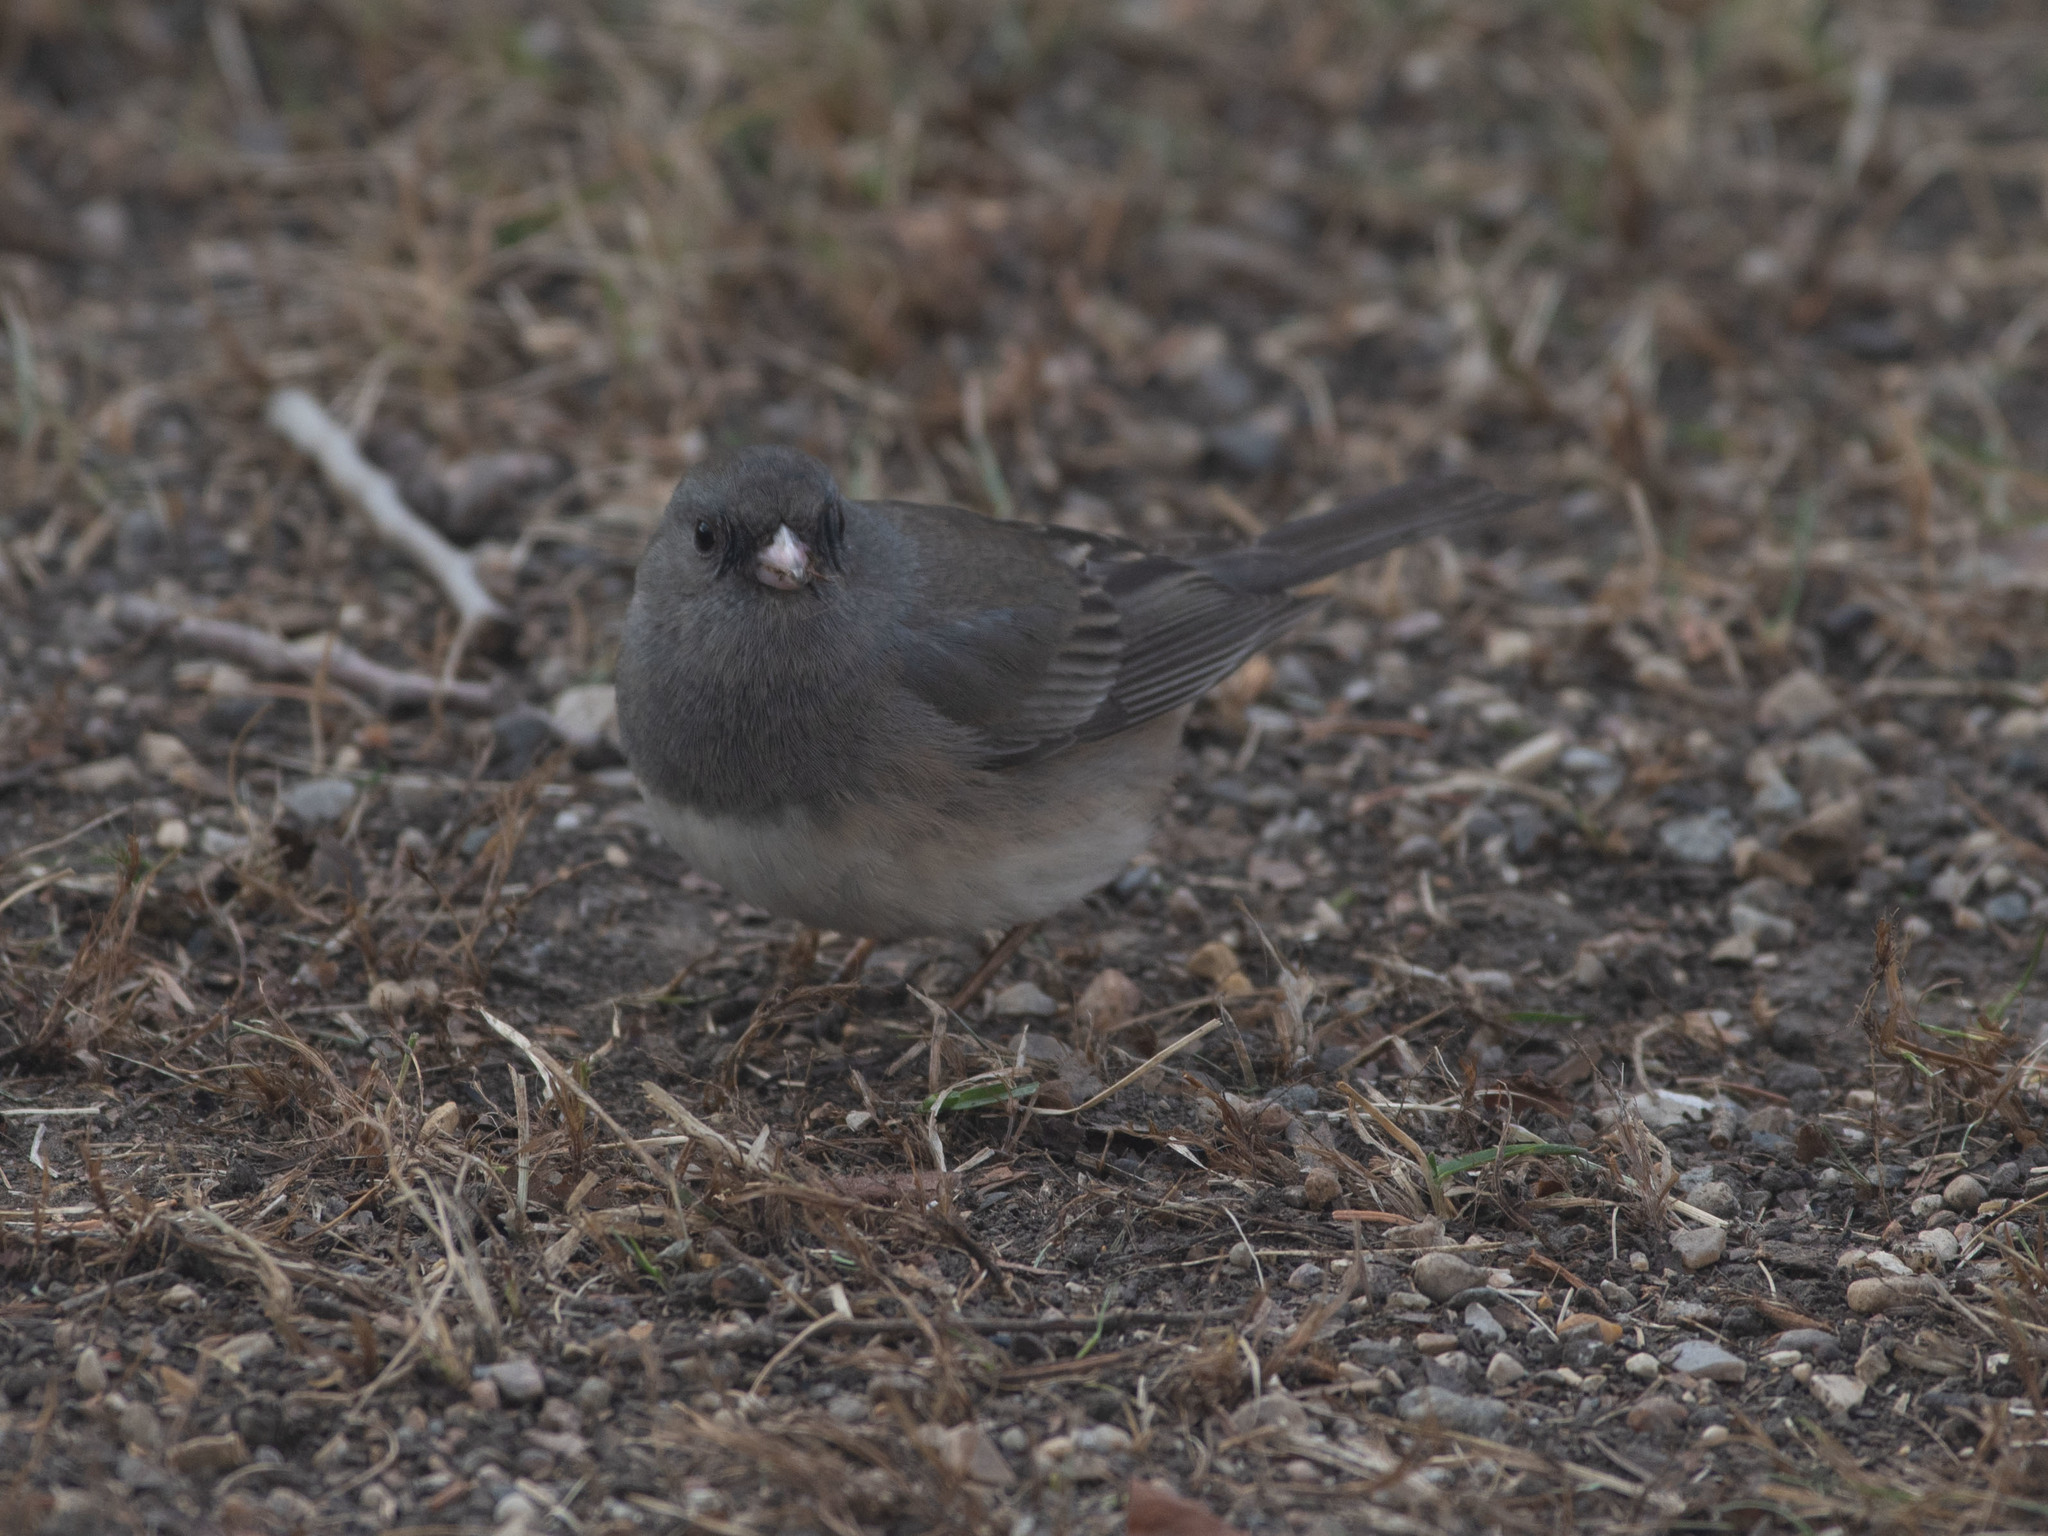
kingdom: Animalia
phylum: Chordata
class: Aves
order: Passeriformes
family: Passerellidae
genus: Junco
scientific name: Junco hyemalis
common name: Dark-eyed junco
